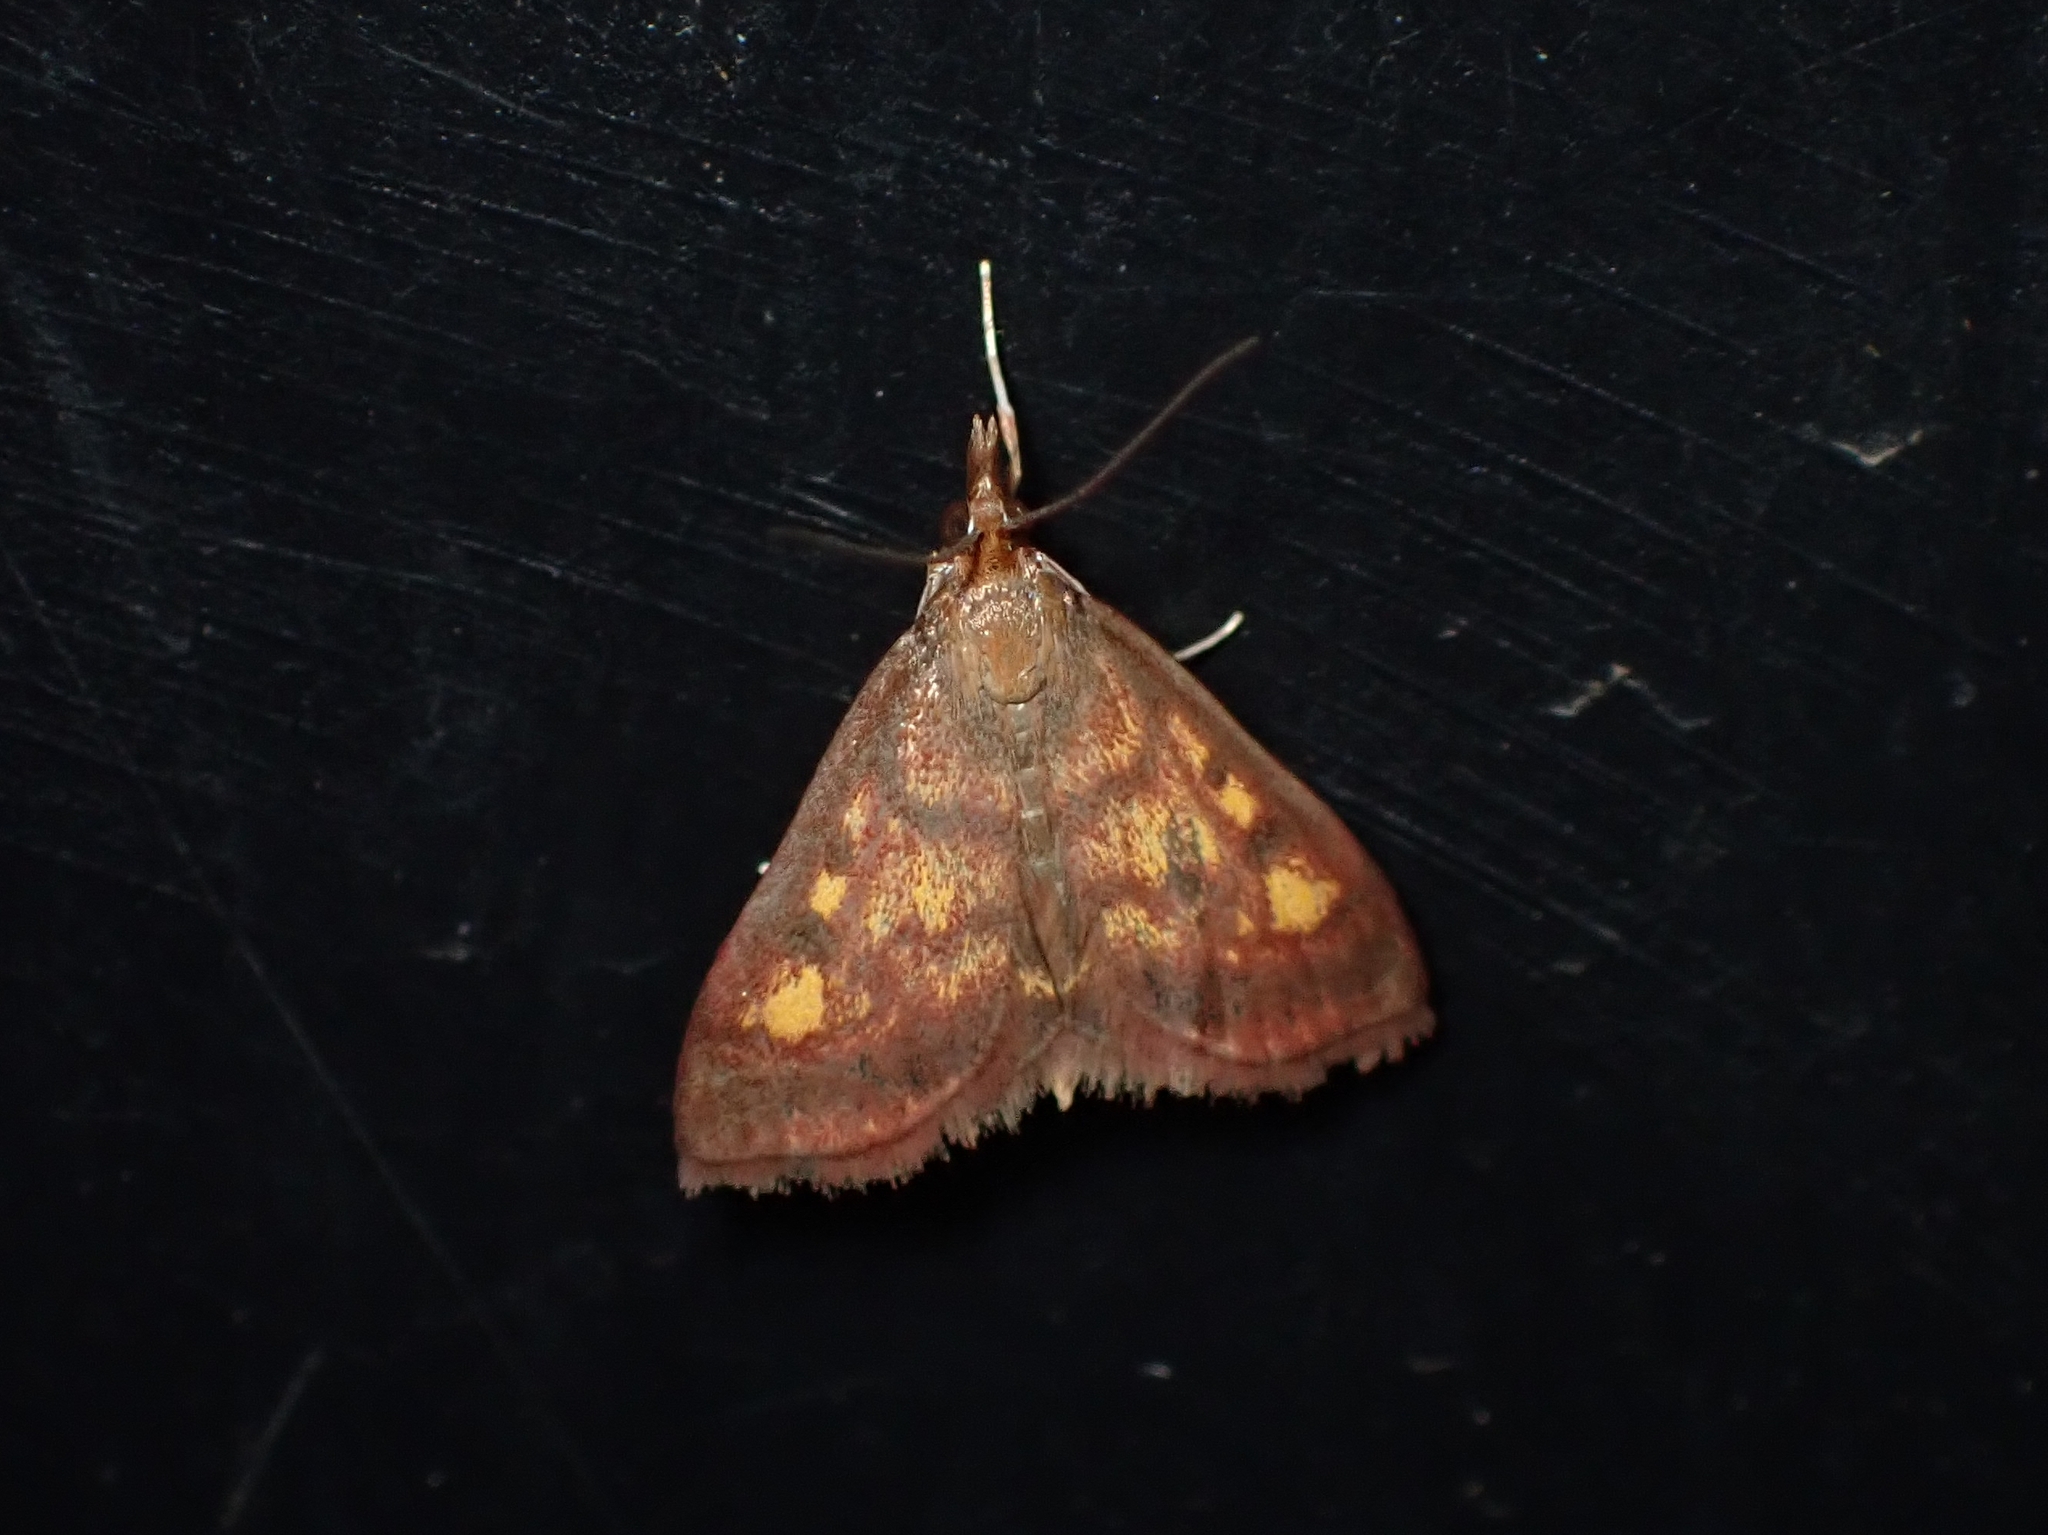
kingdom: Animalia
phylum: Arthropoda
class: Insecta
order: Lepidoptera
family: Crambidae
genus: Pyrausta
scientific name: Pyrausta acrionalis
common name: Mint-loving pyrausta moth
